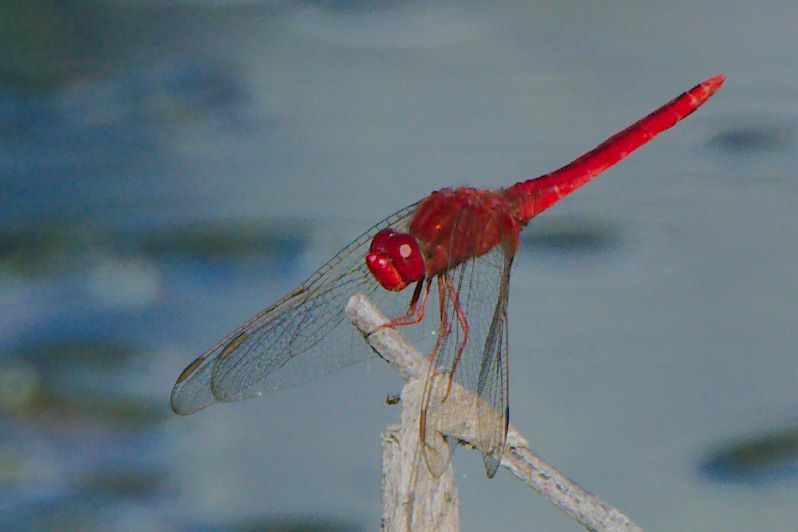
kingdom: Animalia
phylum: Arthropoda
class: Insecta
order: Odonata
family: Libellulidae
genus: Crocothemis
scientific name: Crocothemis servilia
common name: Scarlet skimmer
